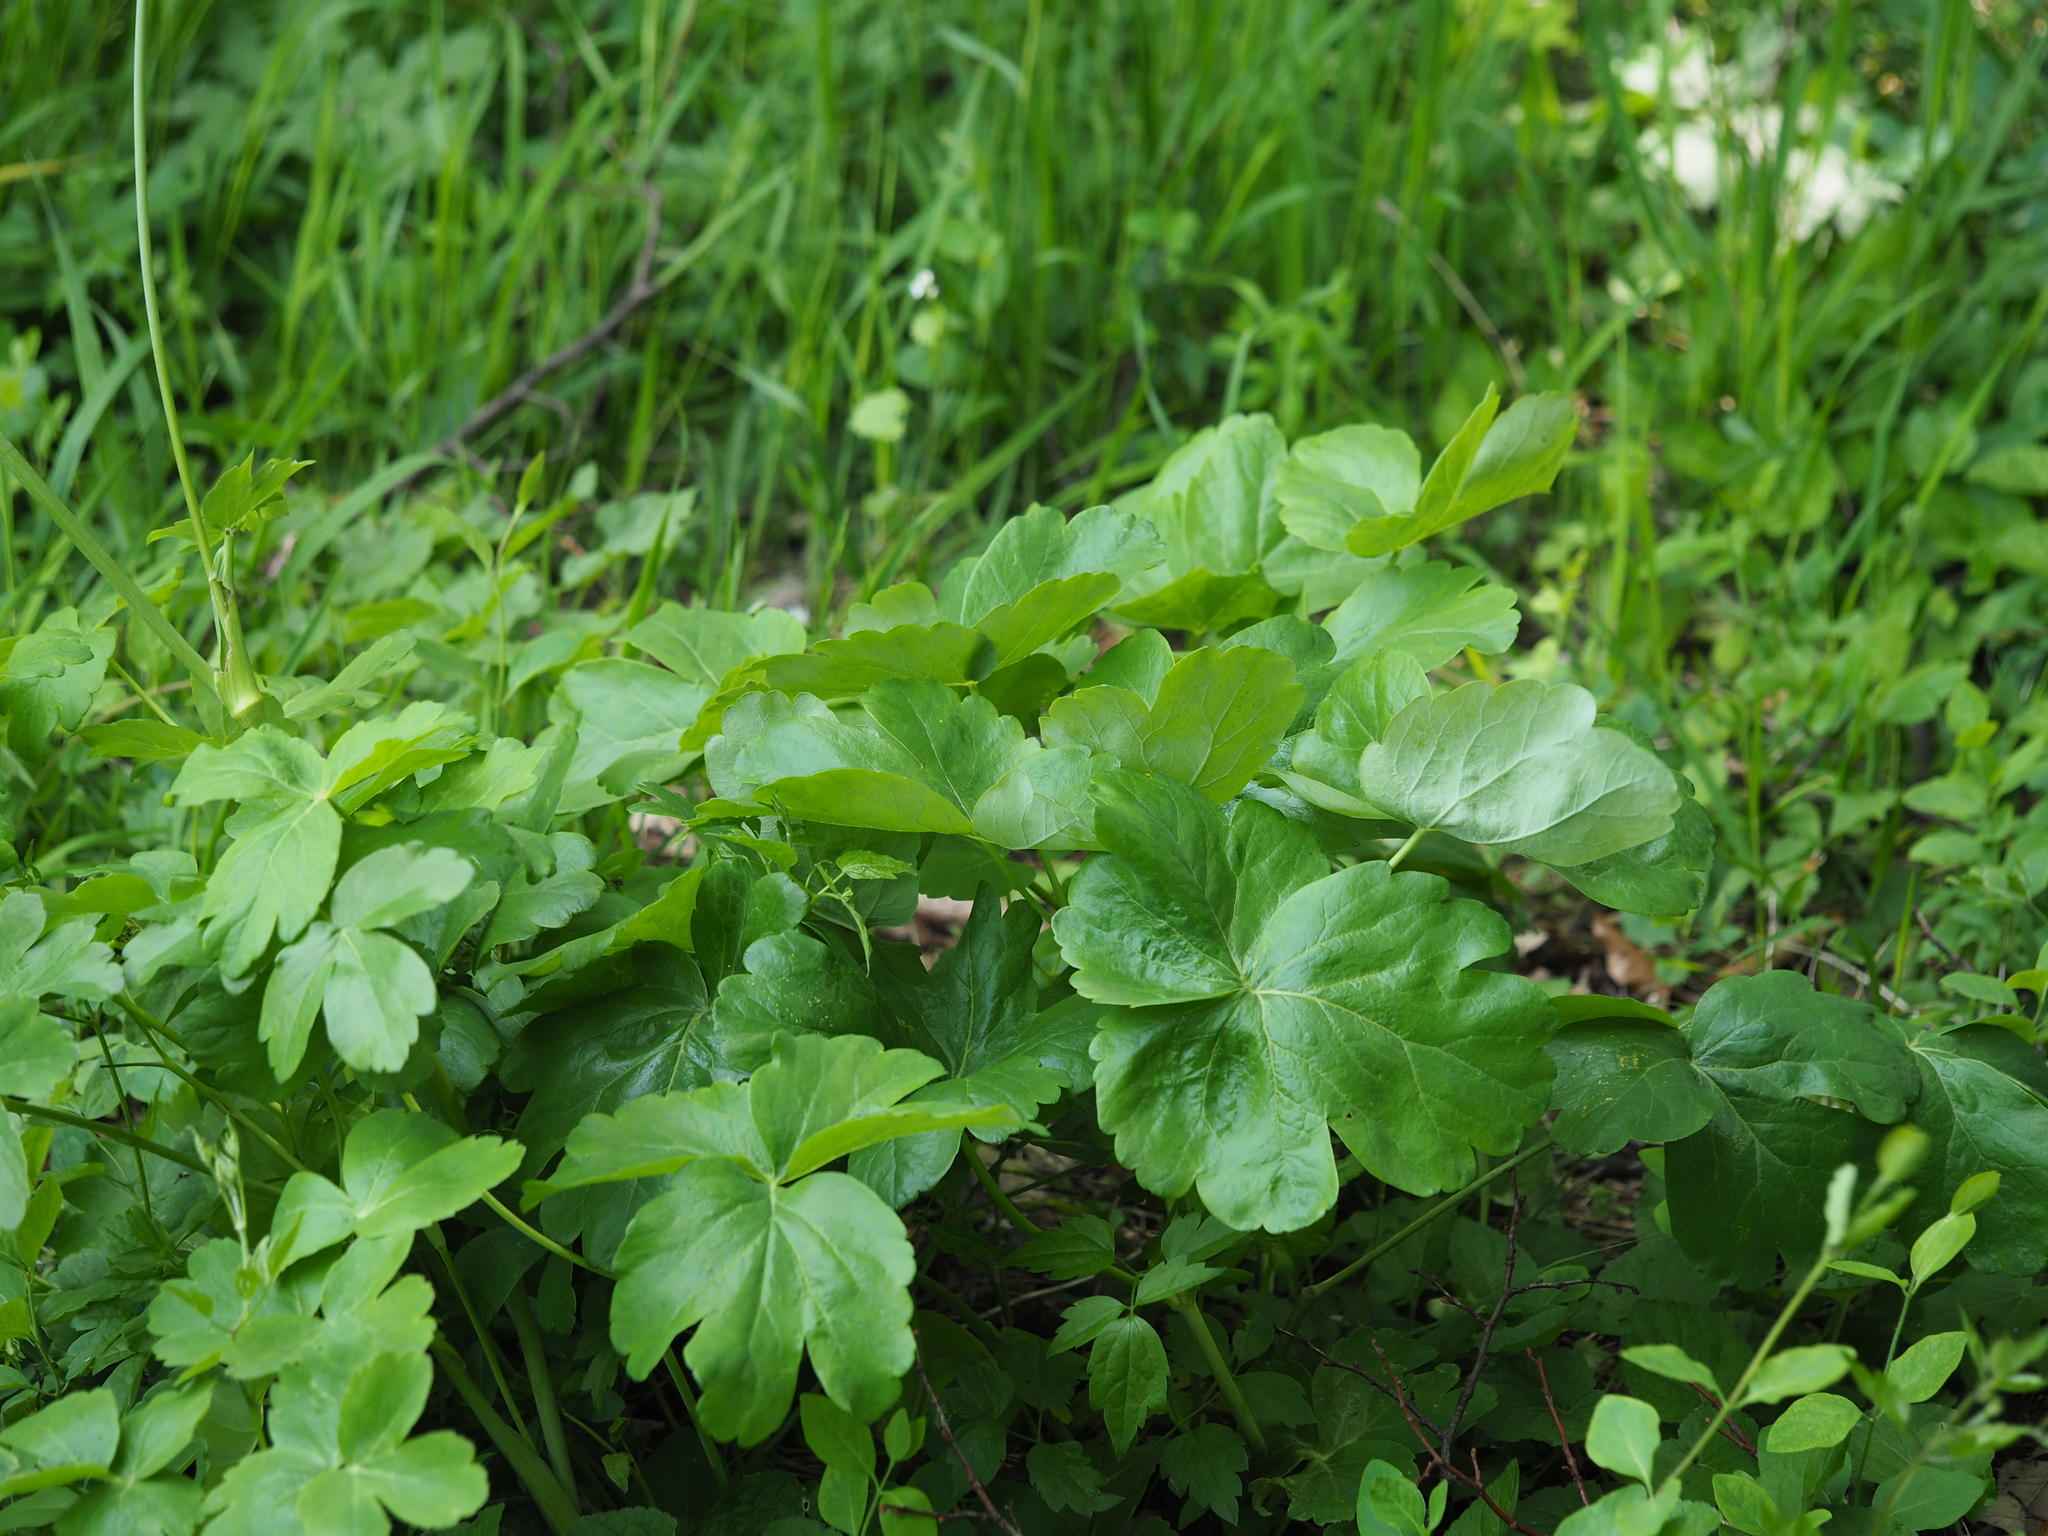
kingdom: Plantae
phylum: Tracheophyta
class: Magnoliopsida
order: Apiales
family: Apiaceae
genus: Laser
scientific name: Laser trilobum
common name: Laser
